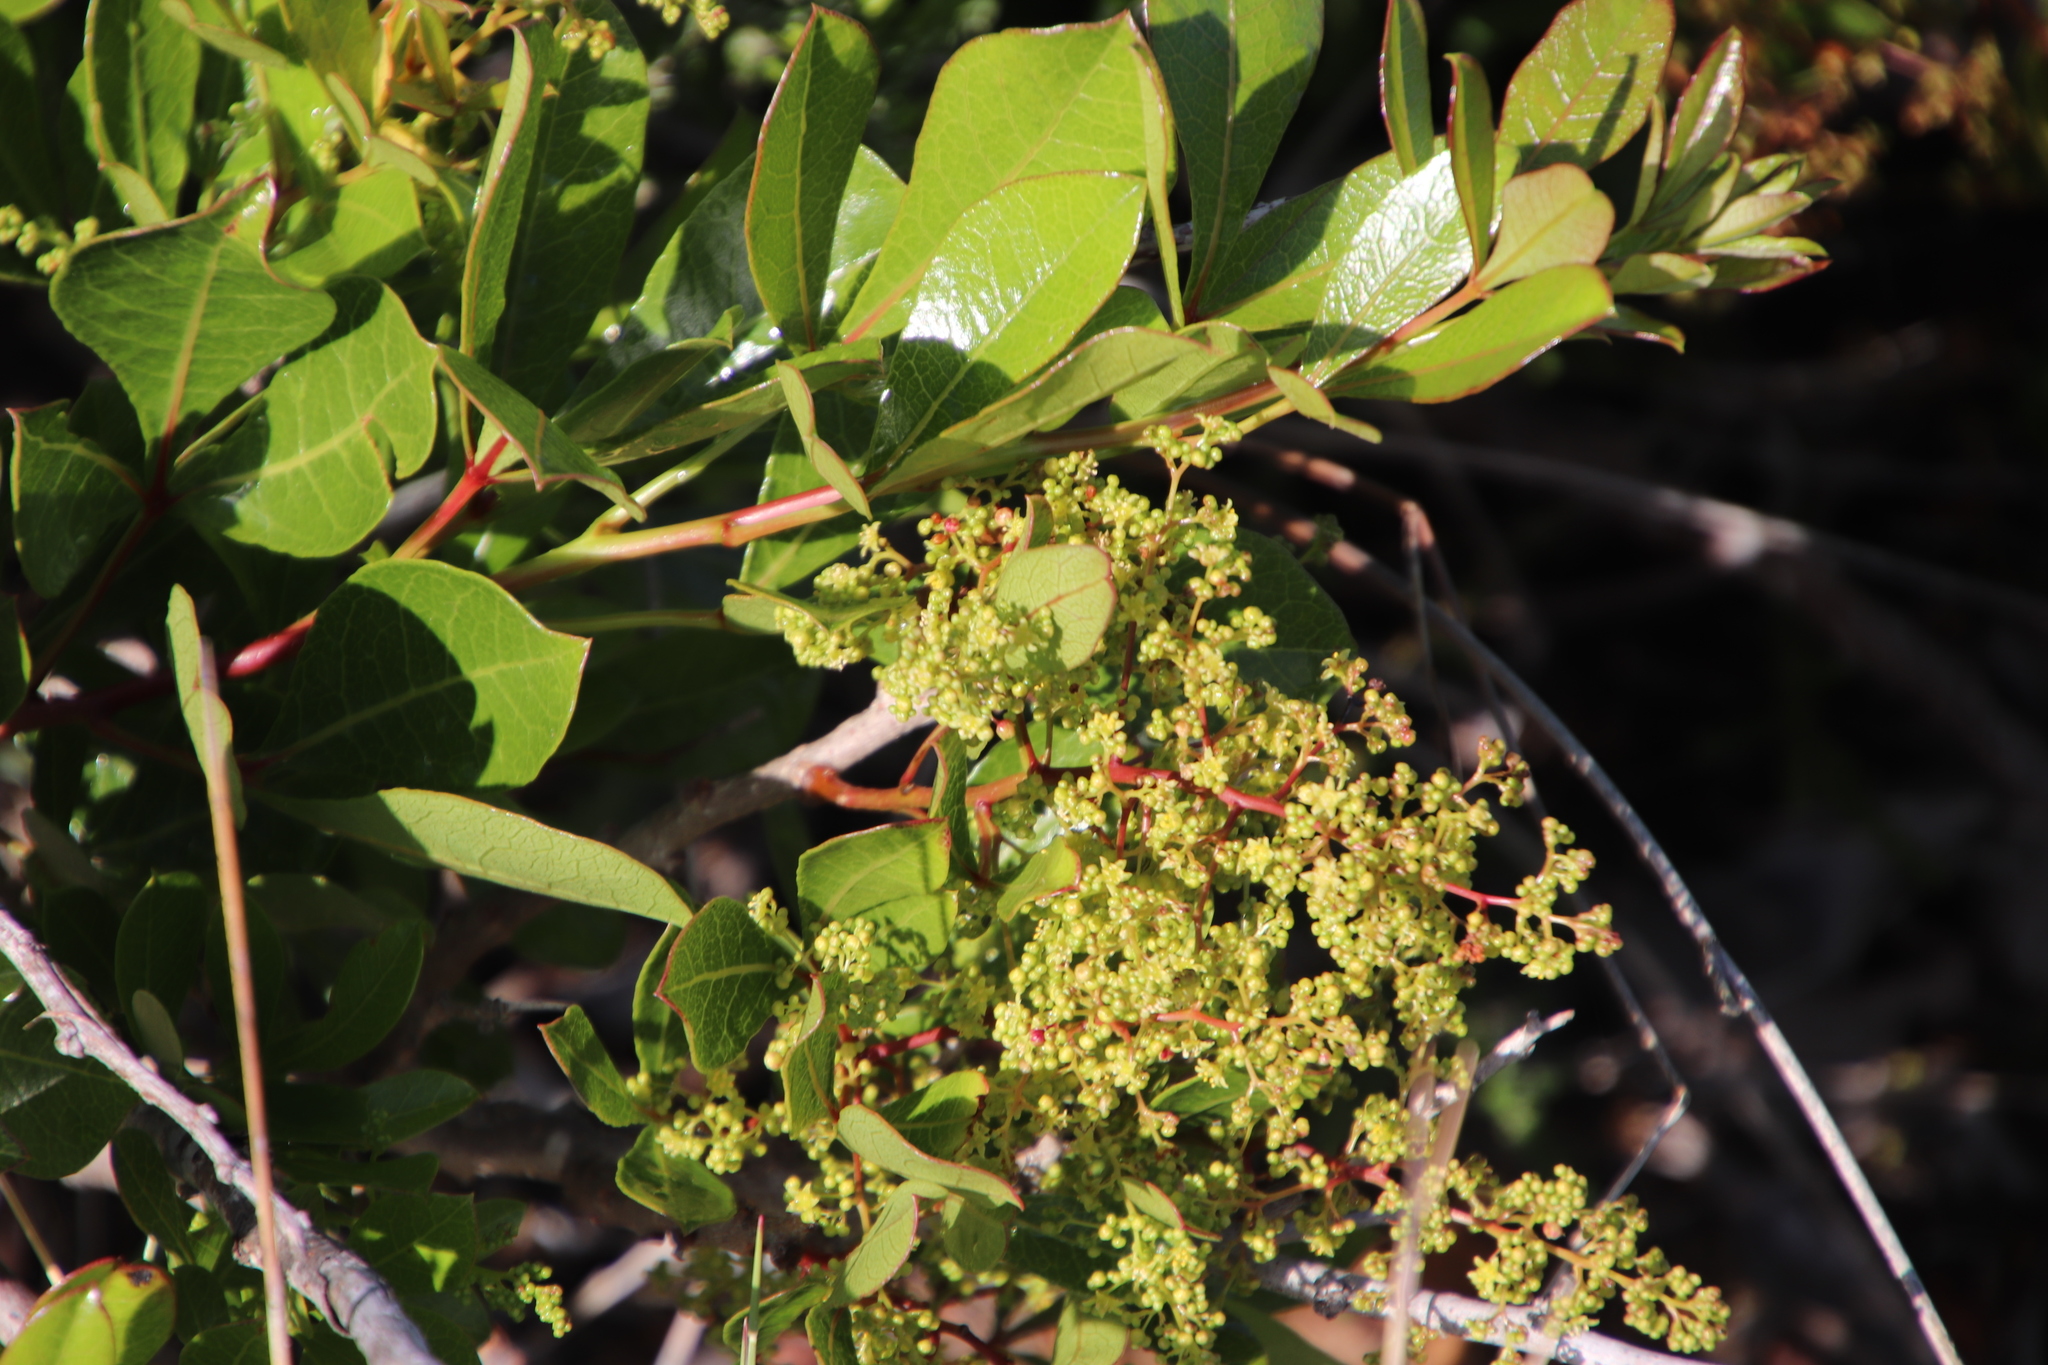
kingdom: Plantae
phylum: Tracheophyta
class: Magnoliopsida
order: Sapindales
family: Anacardiaceae
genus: Searsia
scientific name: Searsia laevigata
